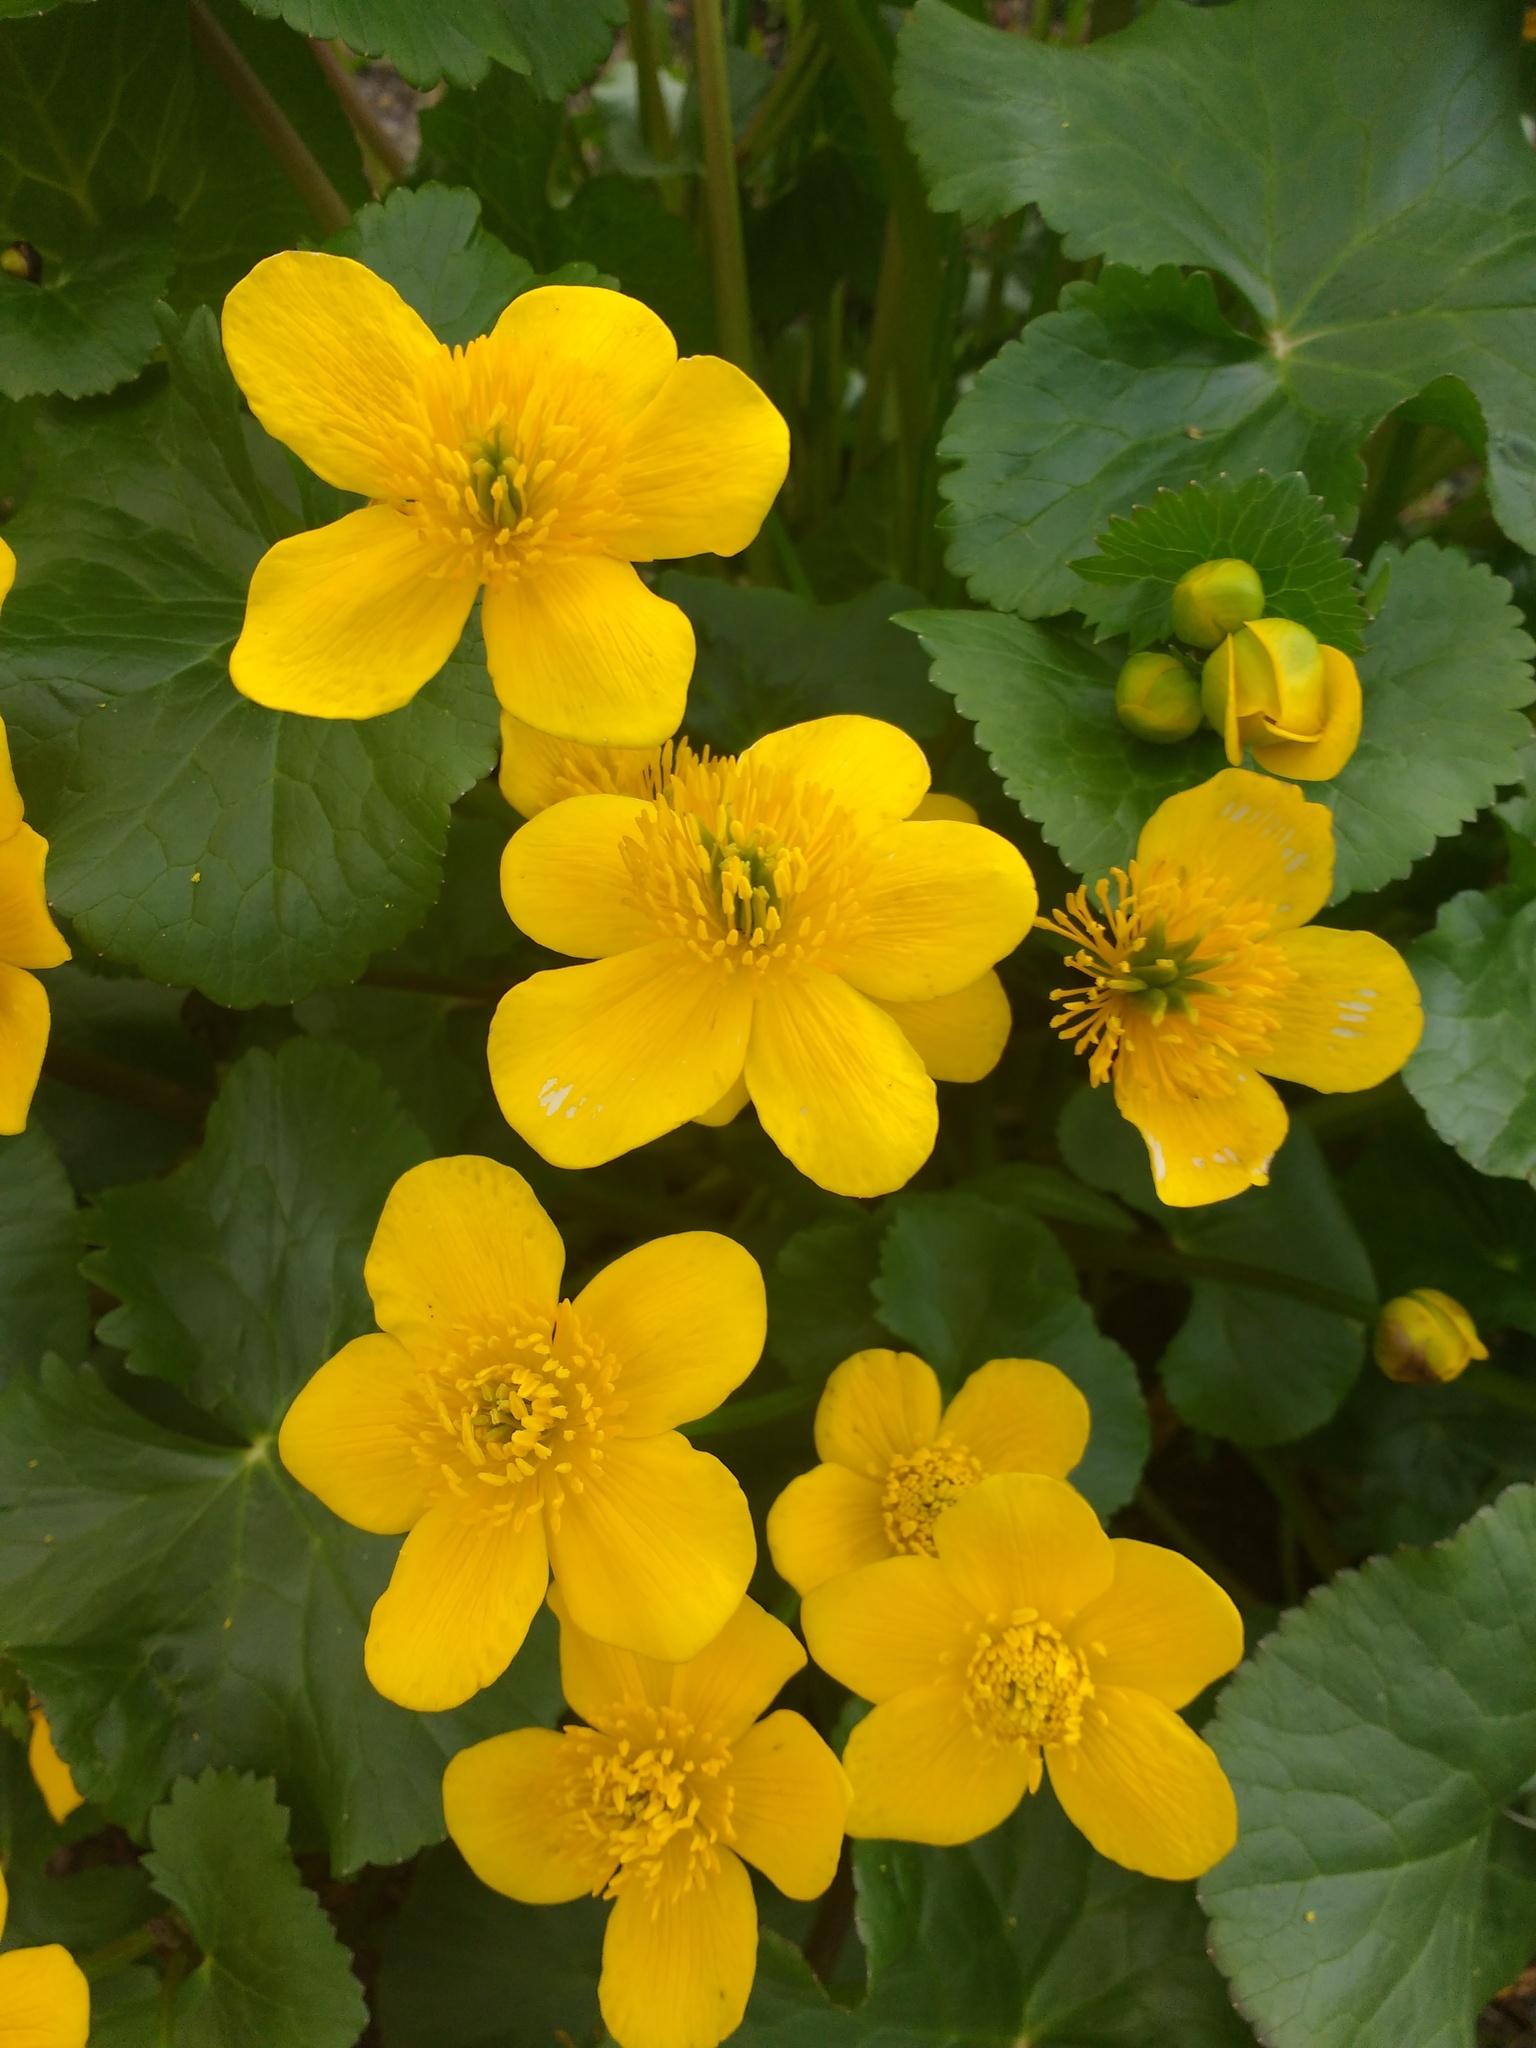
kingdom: Plantae
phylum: Tracheophyta
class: Magnoliopsida
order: Ranunculales
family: Ranunculaceae
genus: Caltha
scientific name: Caltha palustris
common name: Marsh marigold
